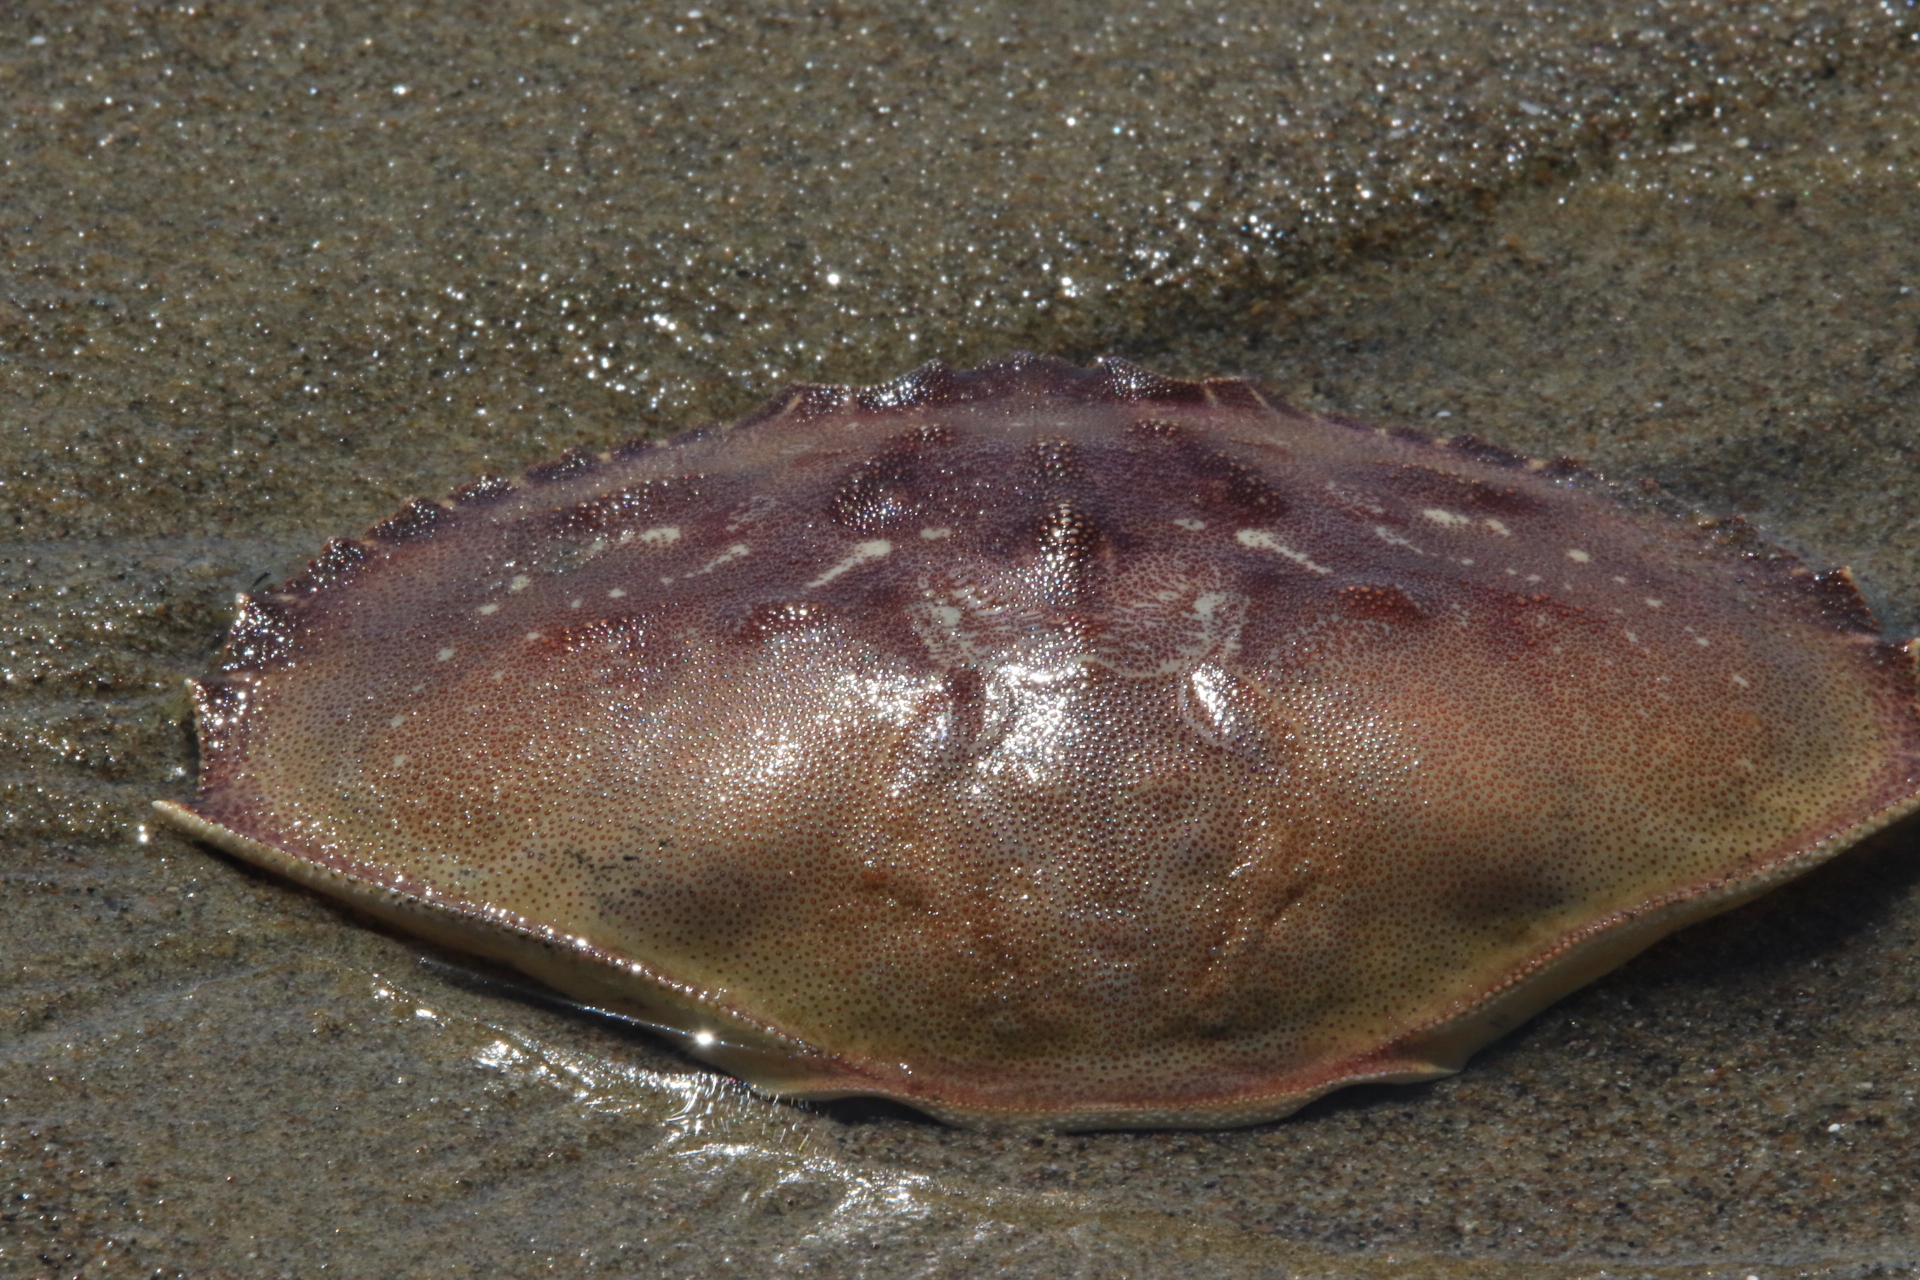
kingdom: Animalia
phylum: Arthropoda
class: Malacostraca
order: Decapoda
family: Cancridae
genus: Metacarcinus
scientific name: Metacarcinus magister
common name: Californian crab
